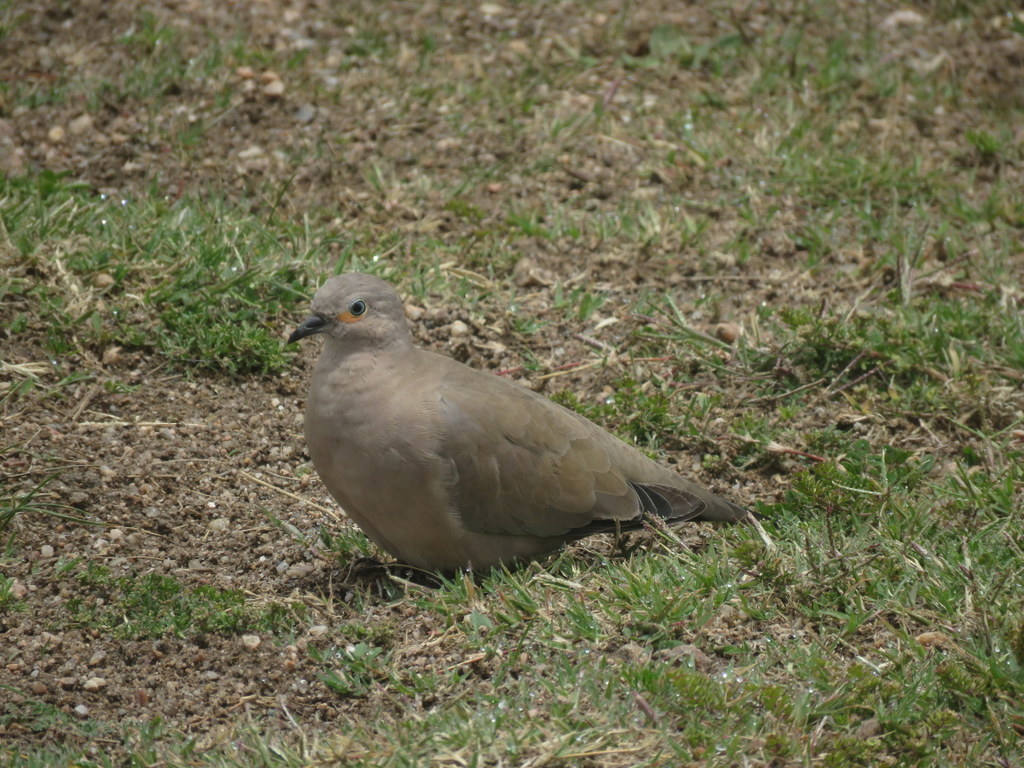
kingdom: Animalia
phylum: Chordata
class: Aves
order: Columbiformes
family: Columbidae
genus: Metriopelia
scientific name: Metriopelia melanoptera
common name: Black-winged ground dove
